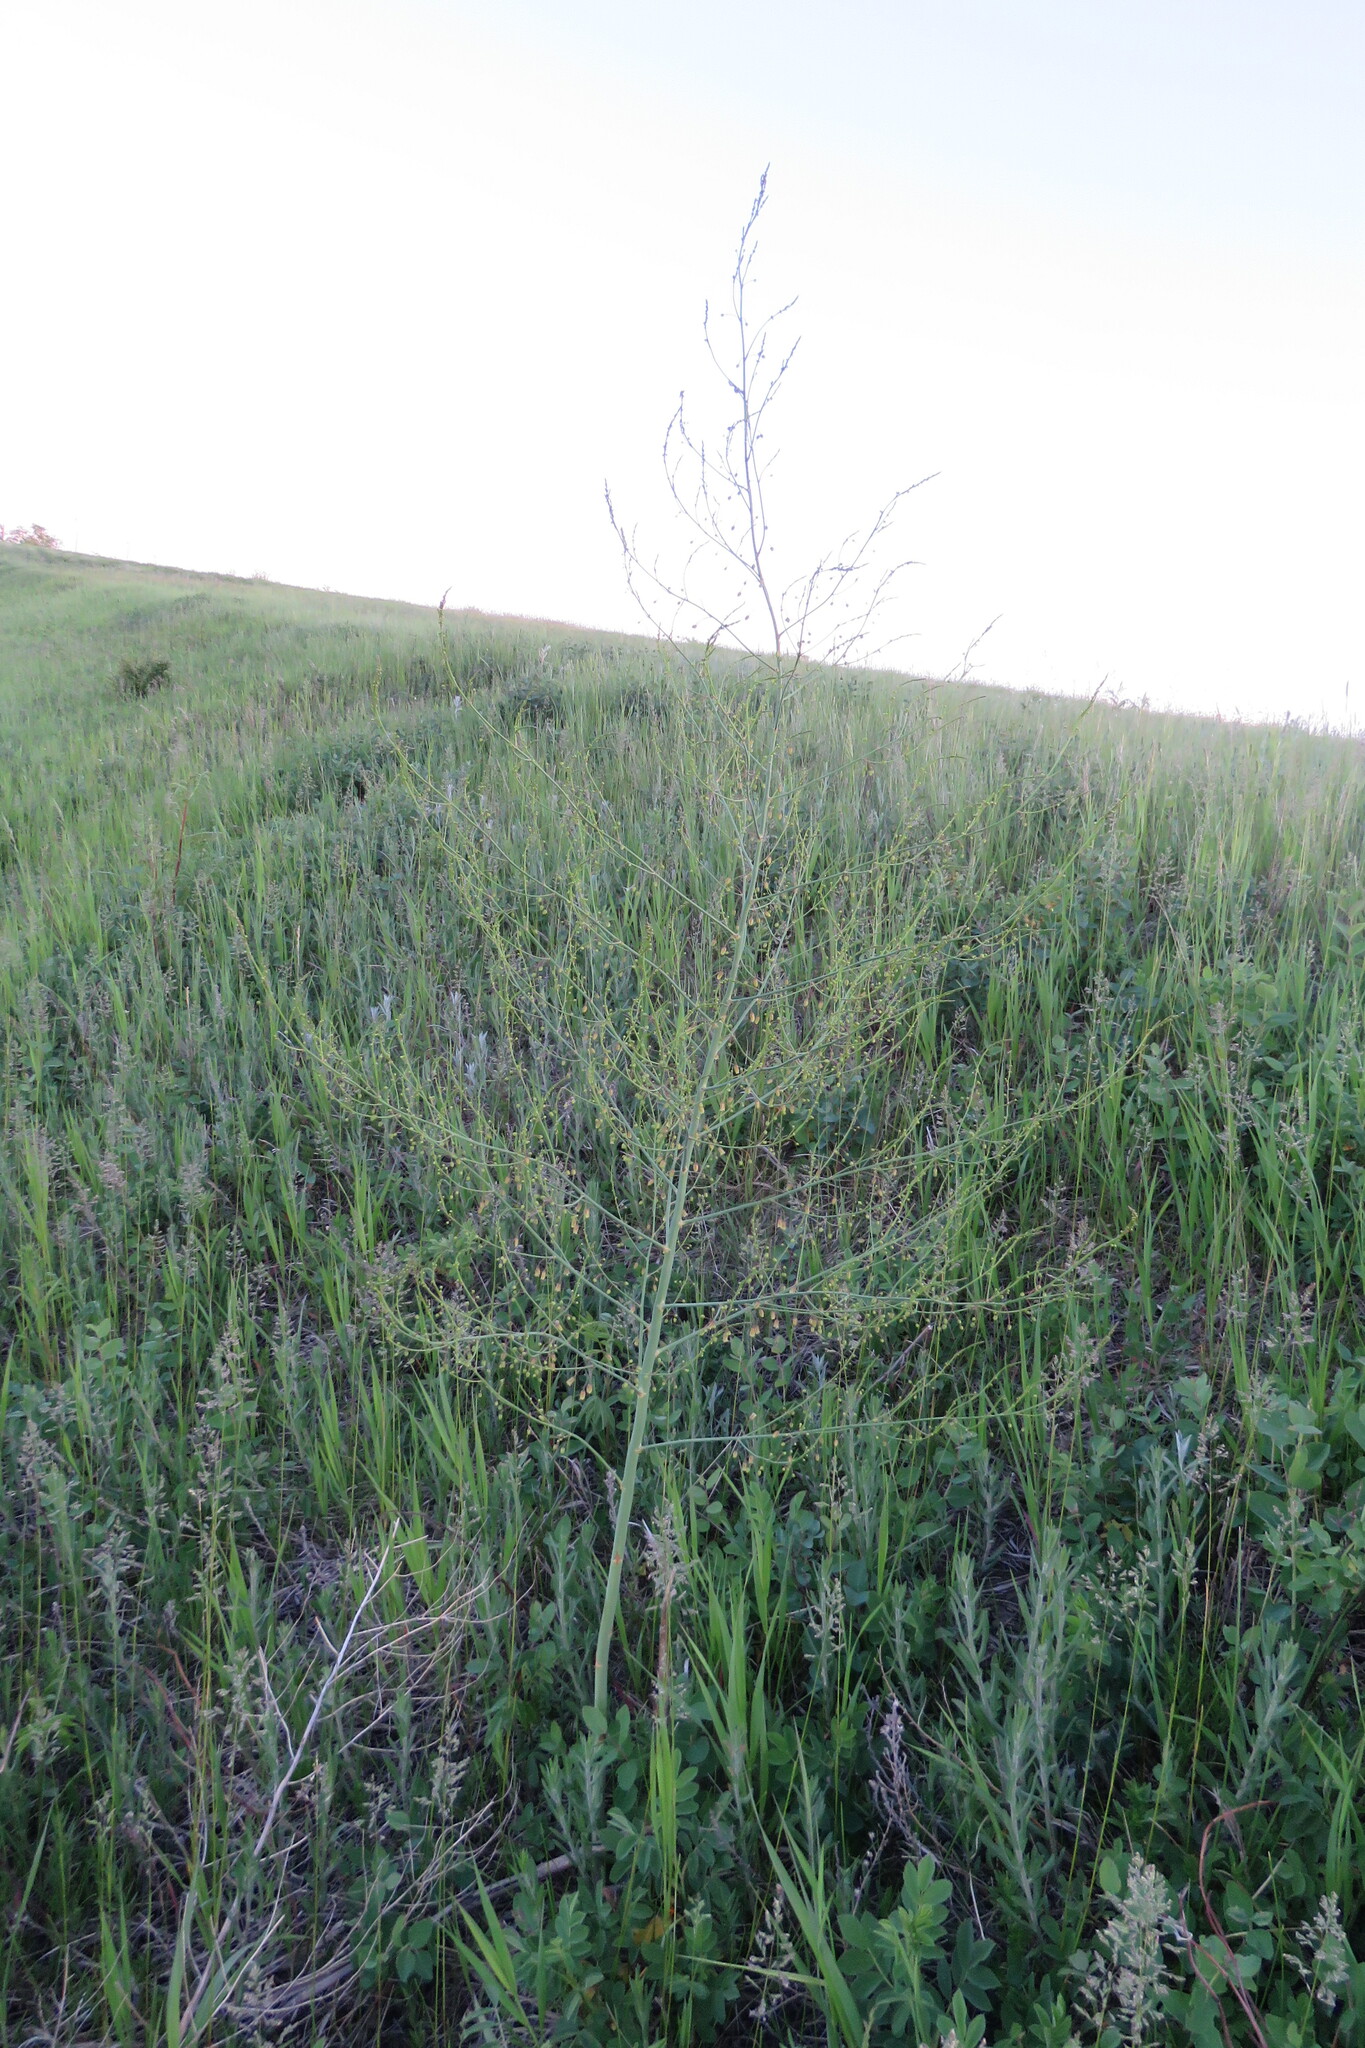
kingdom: Plantae
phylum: Tracheophyta
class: Liliopsida
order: Asparagales
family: Asparagaceae
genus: Asparagus
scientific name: Asparagus officinalis
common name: Garden asparagus
